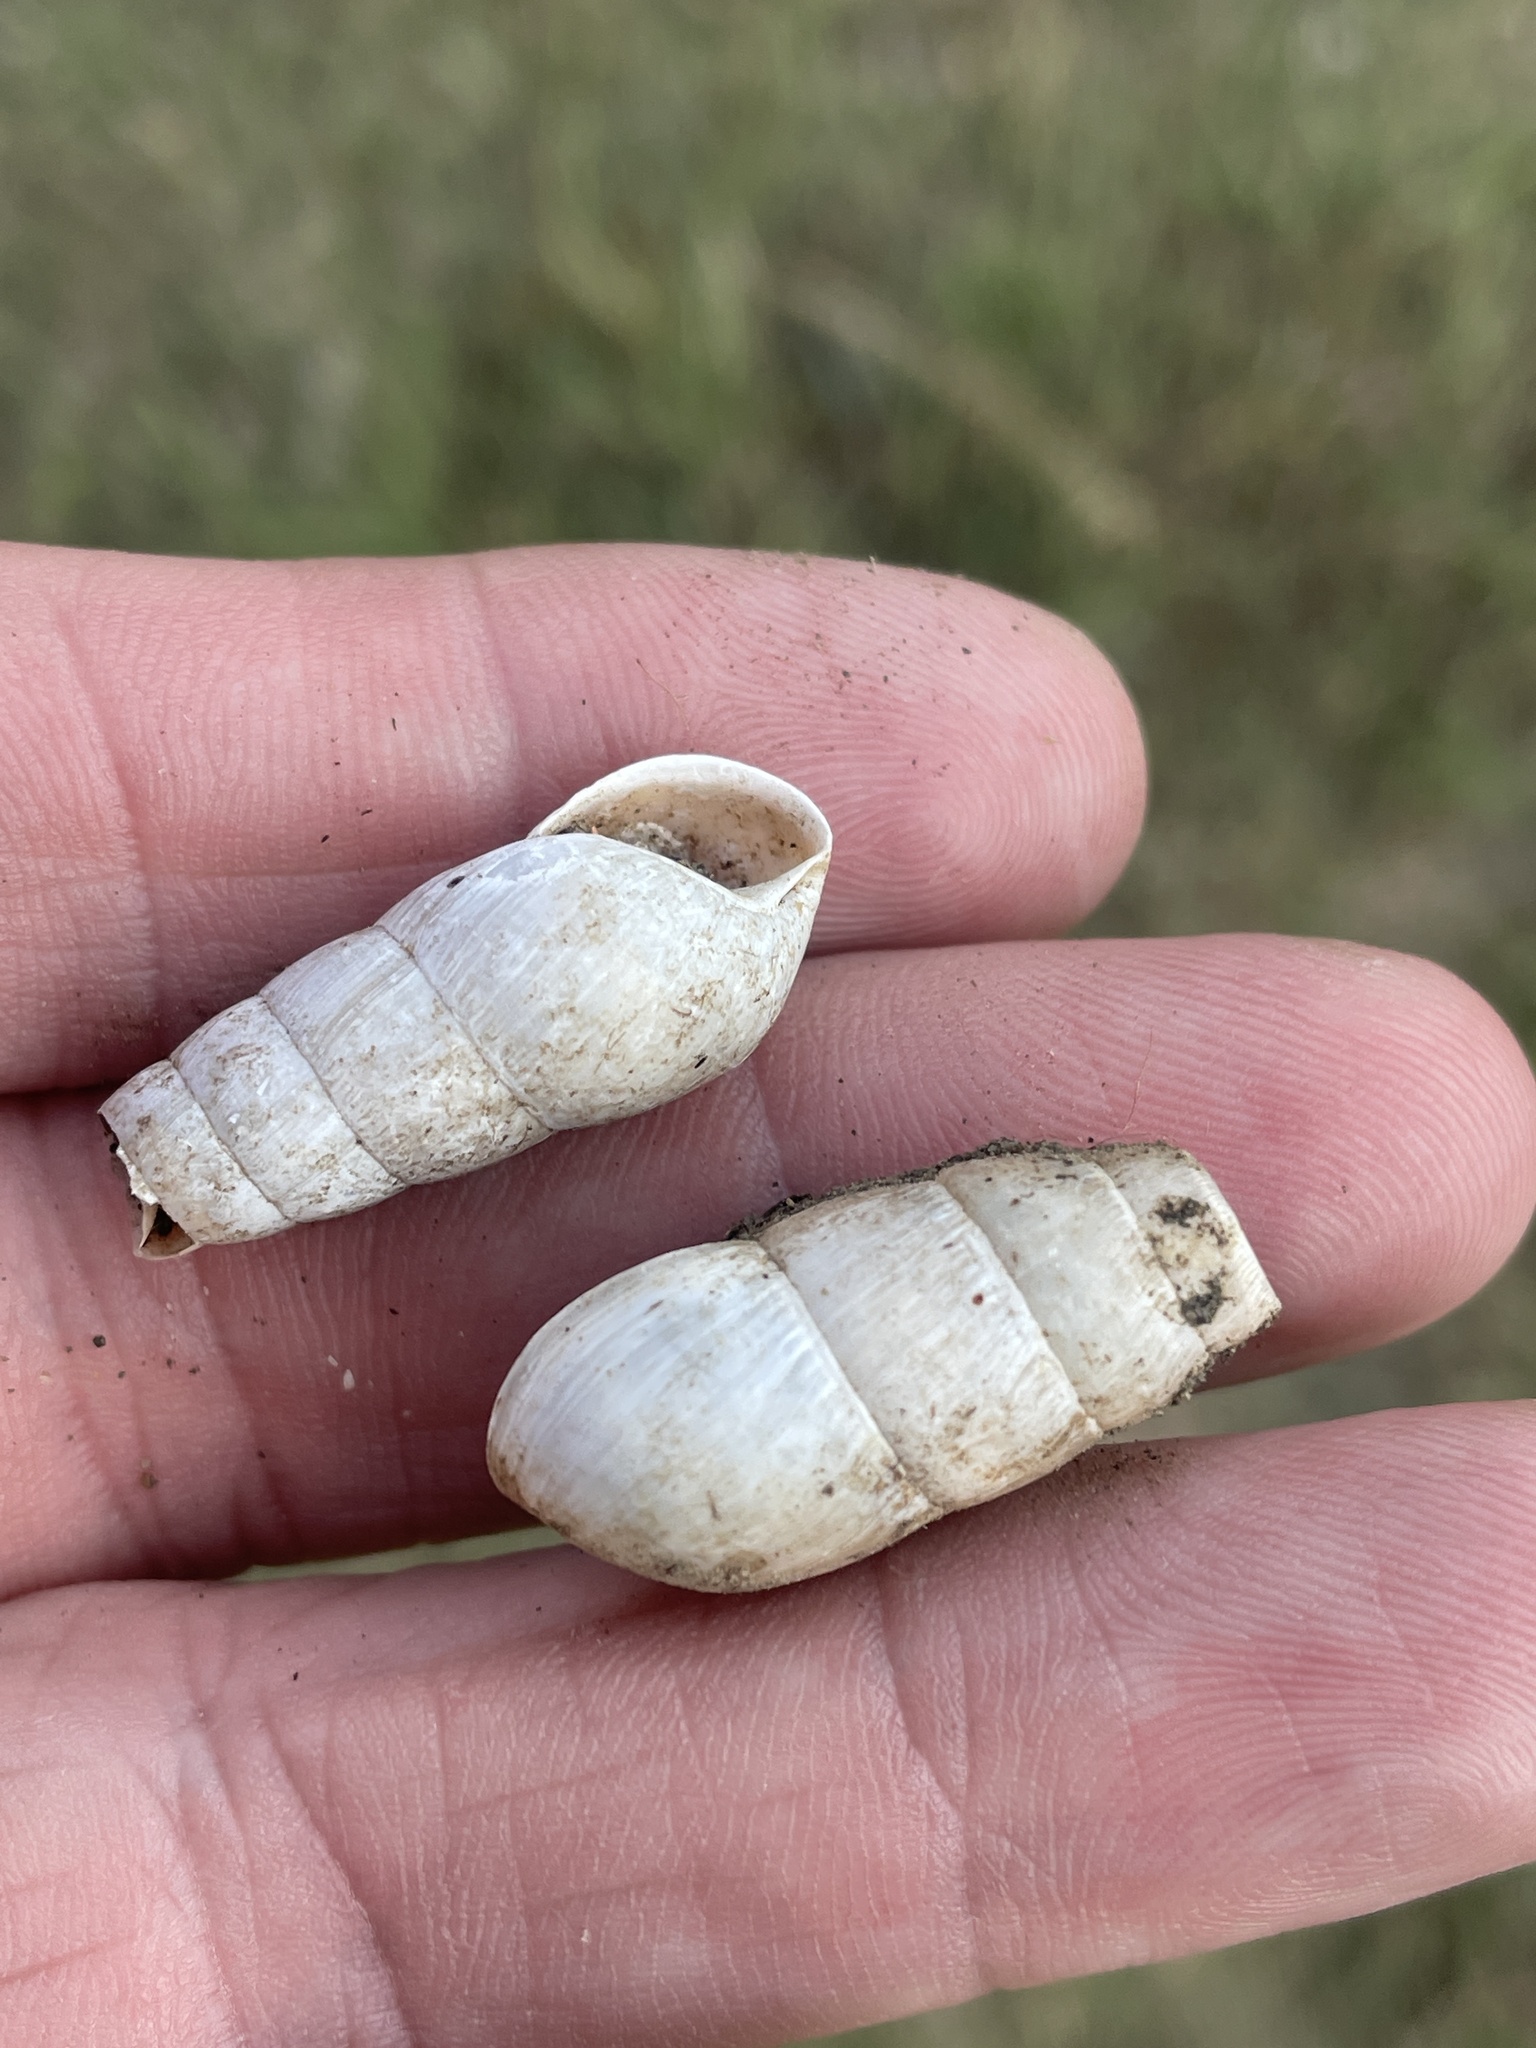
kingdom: Animalia
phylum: Mollusca
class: Gastropoda
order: Stylommatophora
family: Achatinidae
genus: Rumina
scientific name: Rumina decollata
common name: Decollate snail
